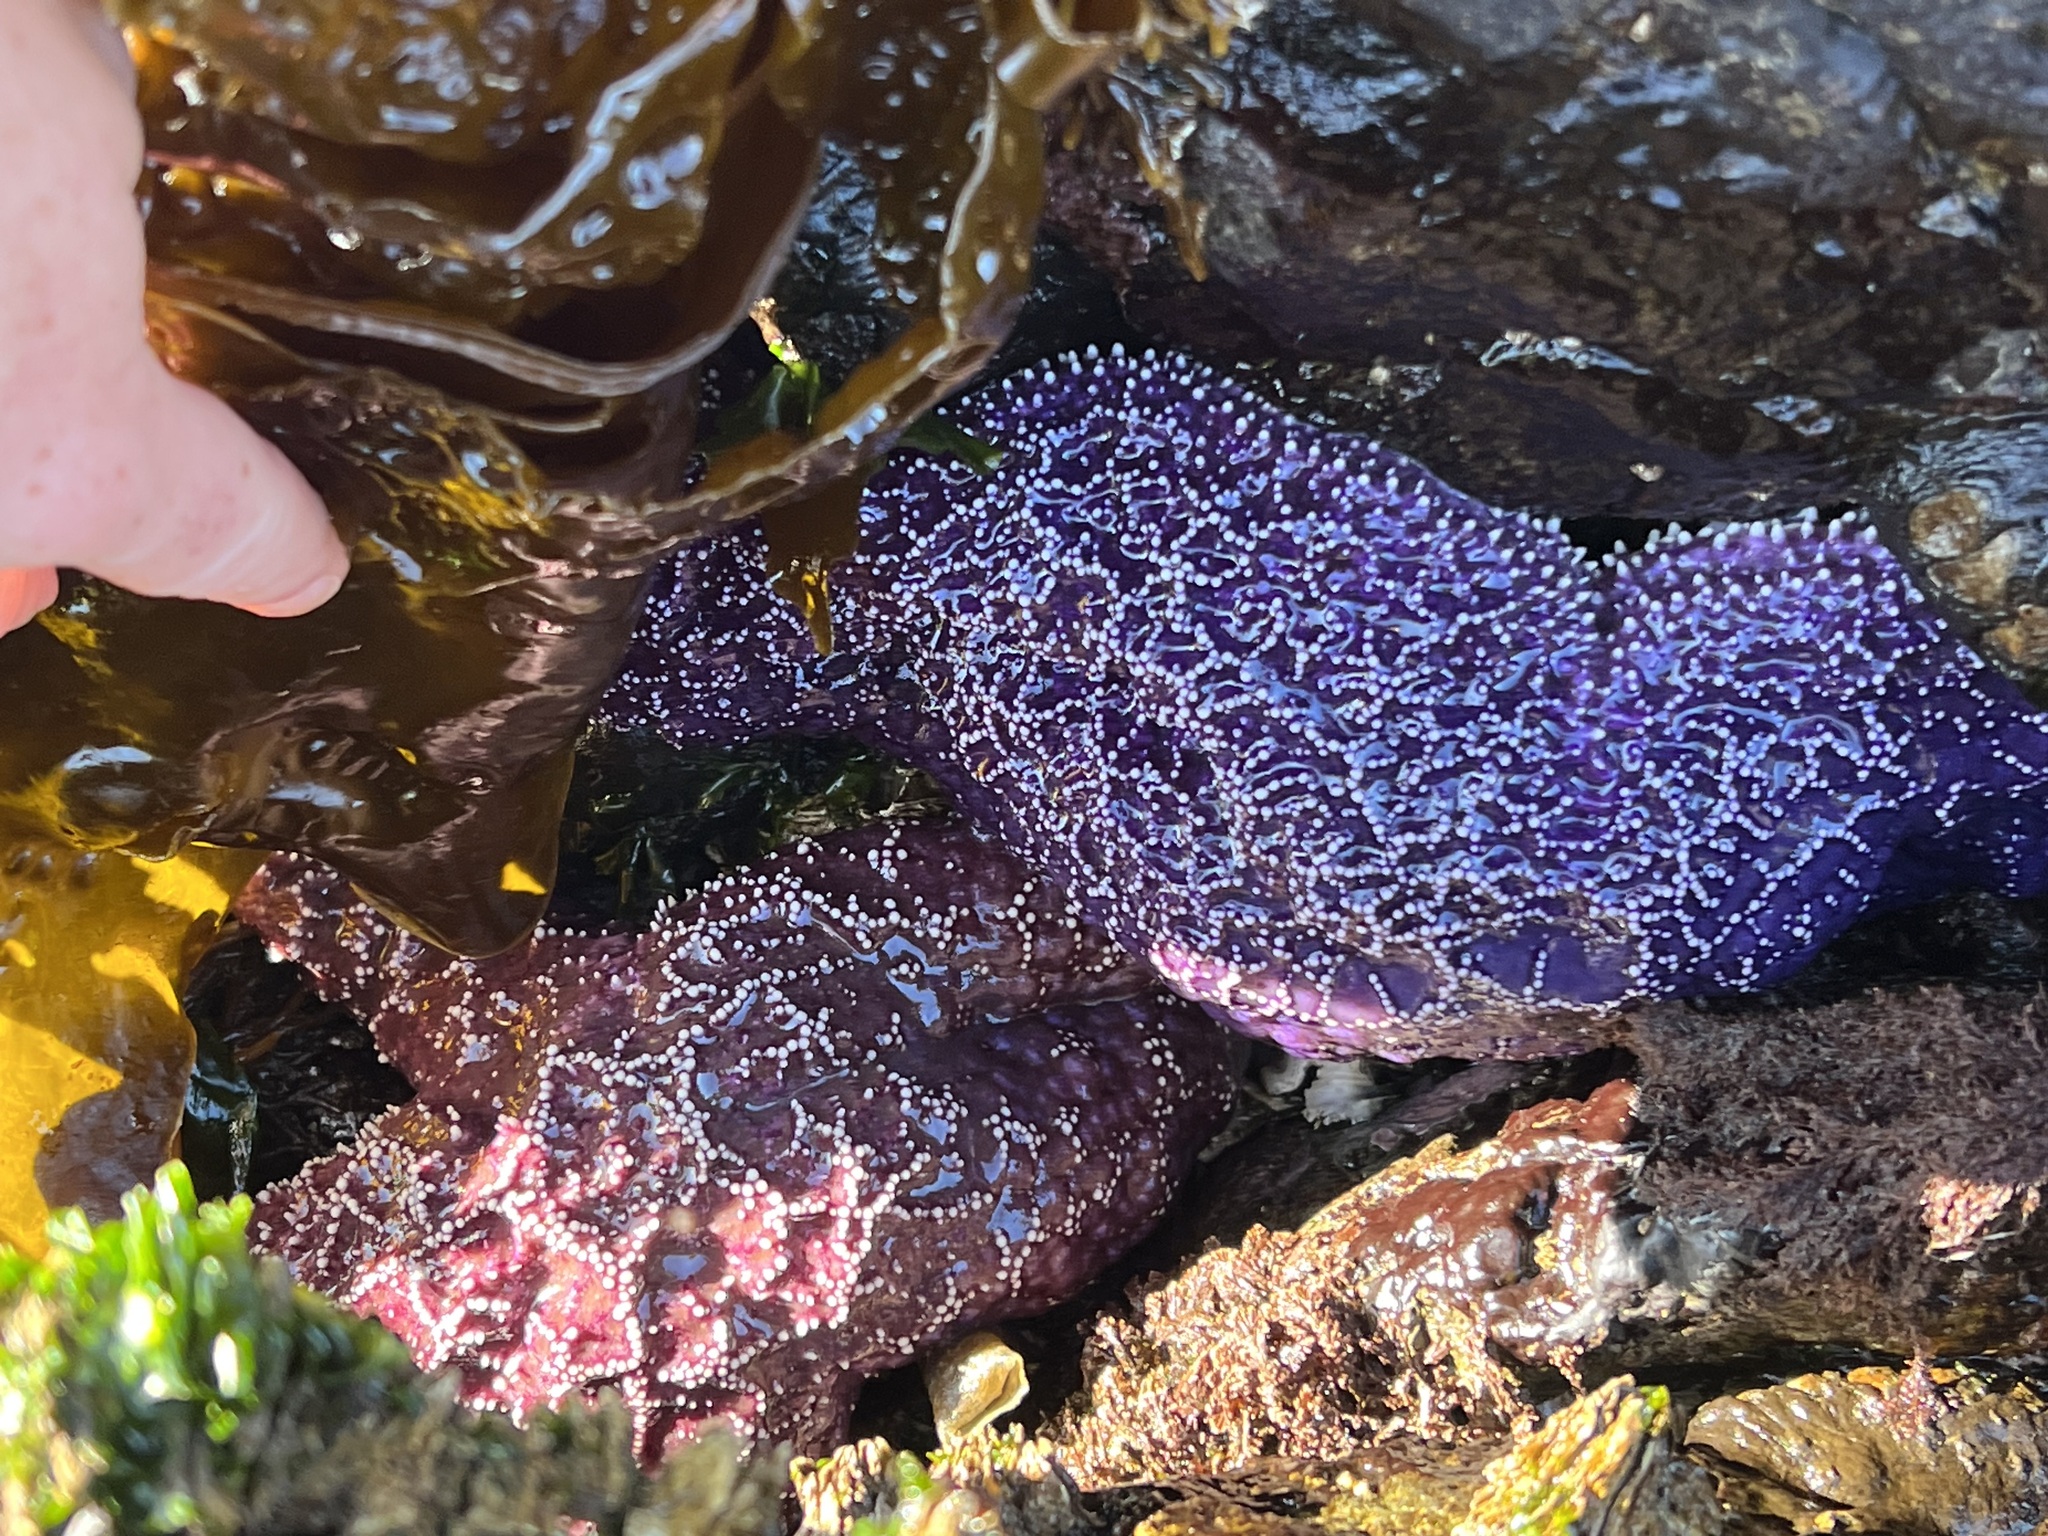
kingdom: Animalia
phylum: Echinodermata
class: Asteroidea
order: Forcipulatida
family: Asteriidae
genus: Pisaster
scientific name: Pisaster ochraceus
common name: Ochre stars
